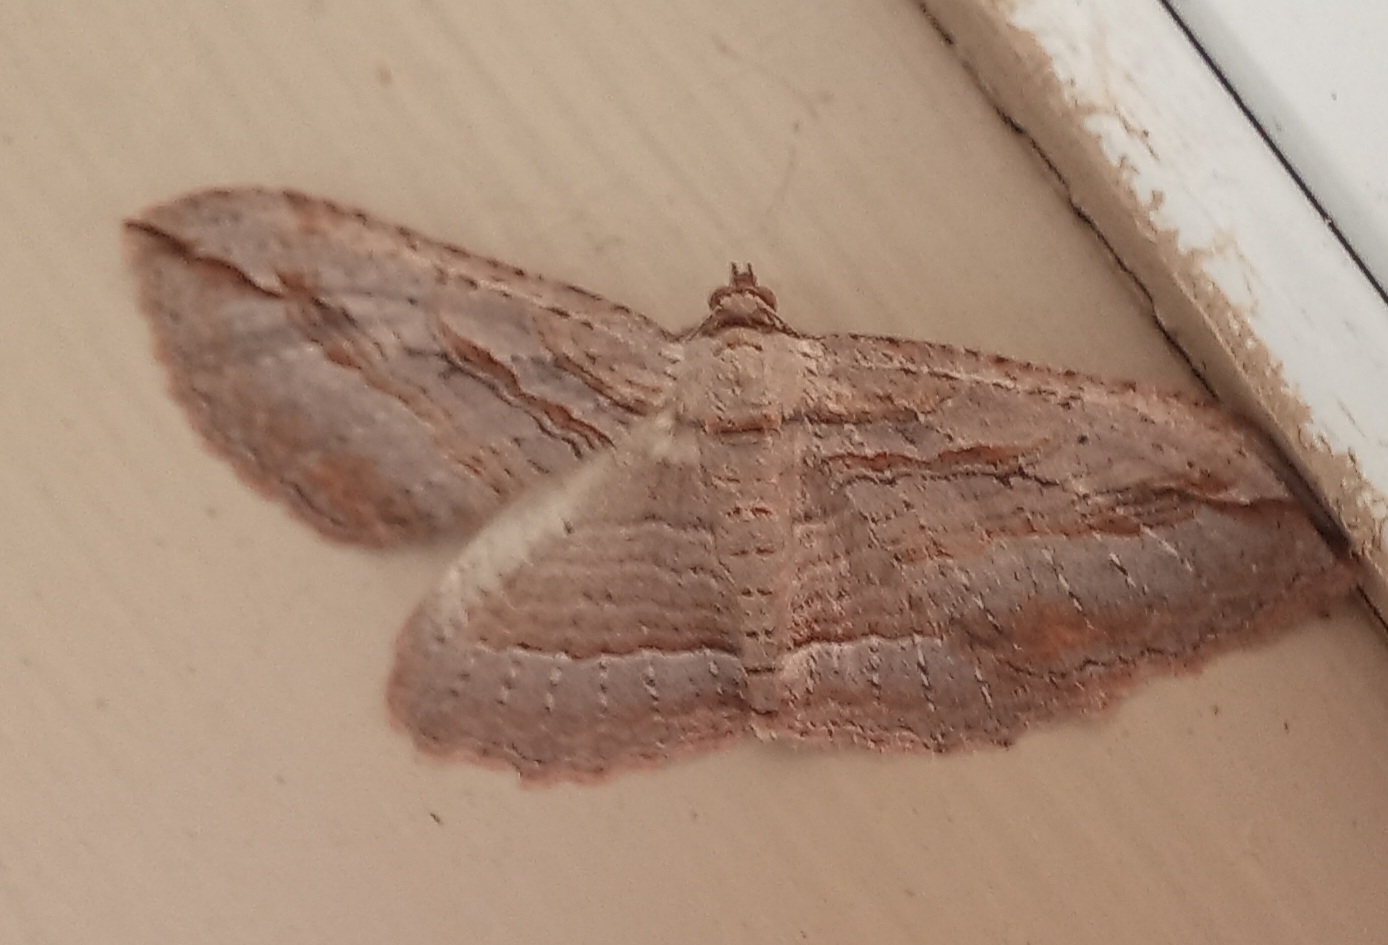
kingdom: Animalia
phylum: Arthropoda
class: Insecta
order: Lepidoptera
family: Geometridae
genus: Austrocidaria
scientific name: Austrocidaria gobiata
